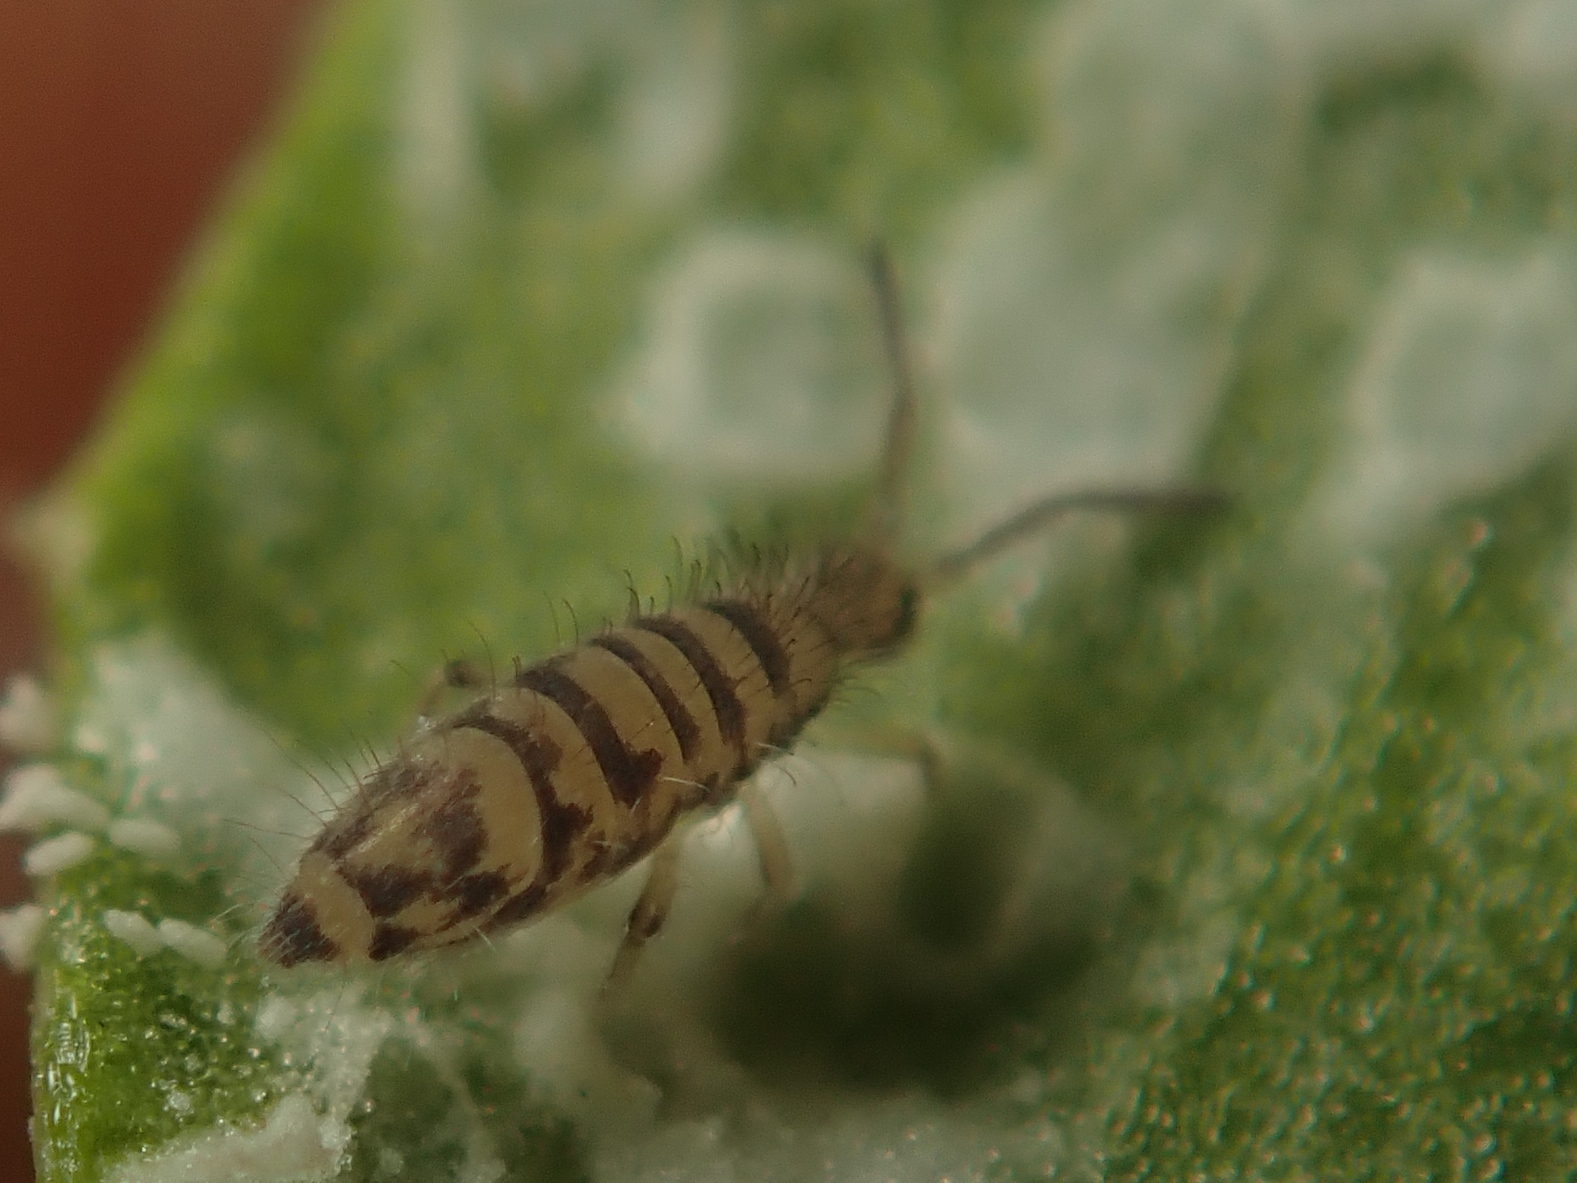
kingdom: Animalia
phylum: Arthropoda
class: Collembola
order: Entomobryomorpha
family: Entomobryidae
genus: Entomobrya
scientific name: Entomobrya multifasciata
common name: Springtail
